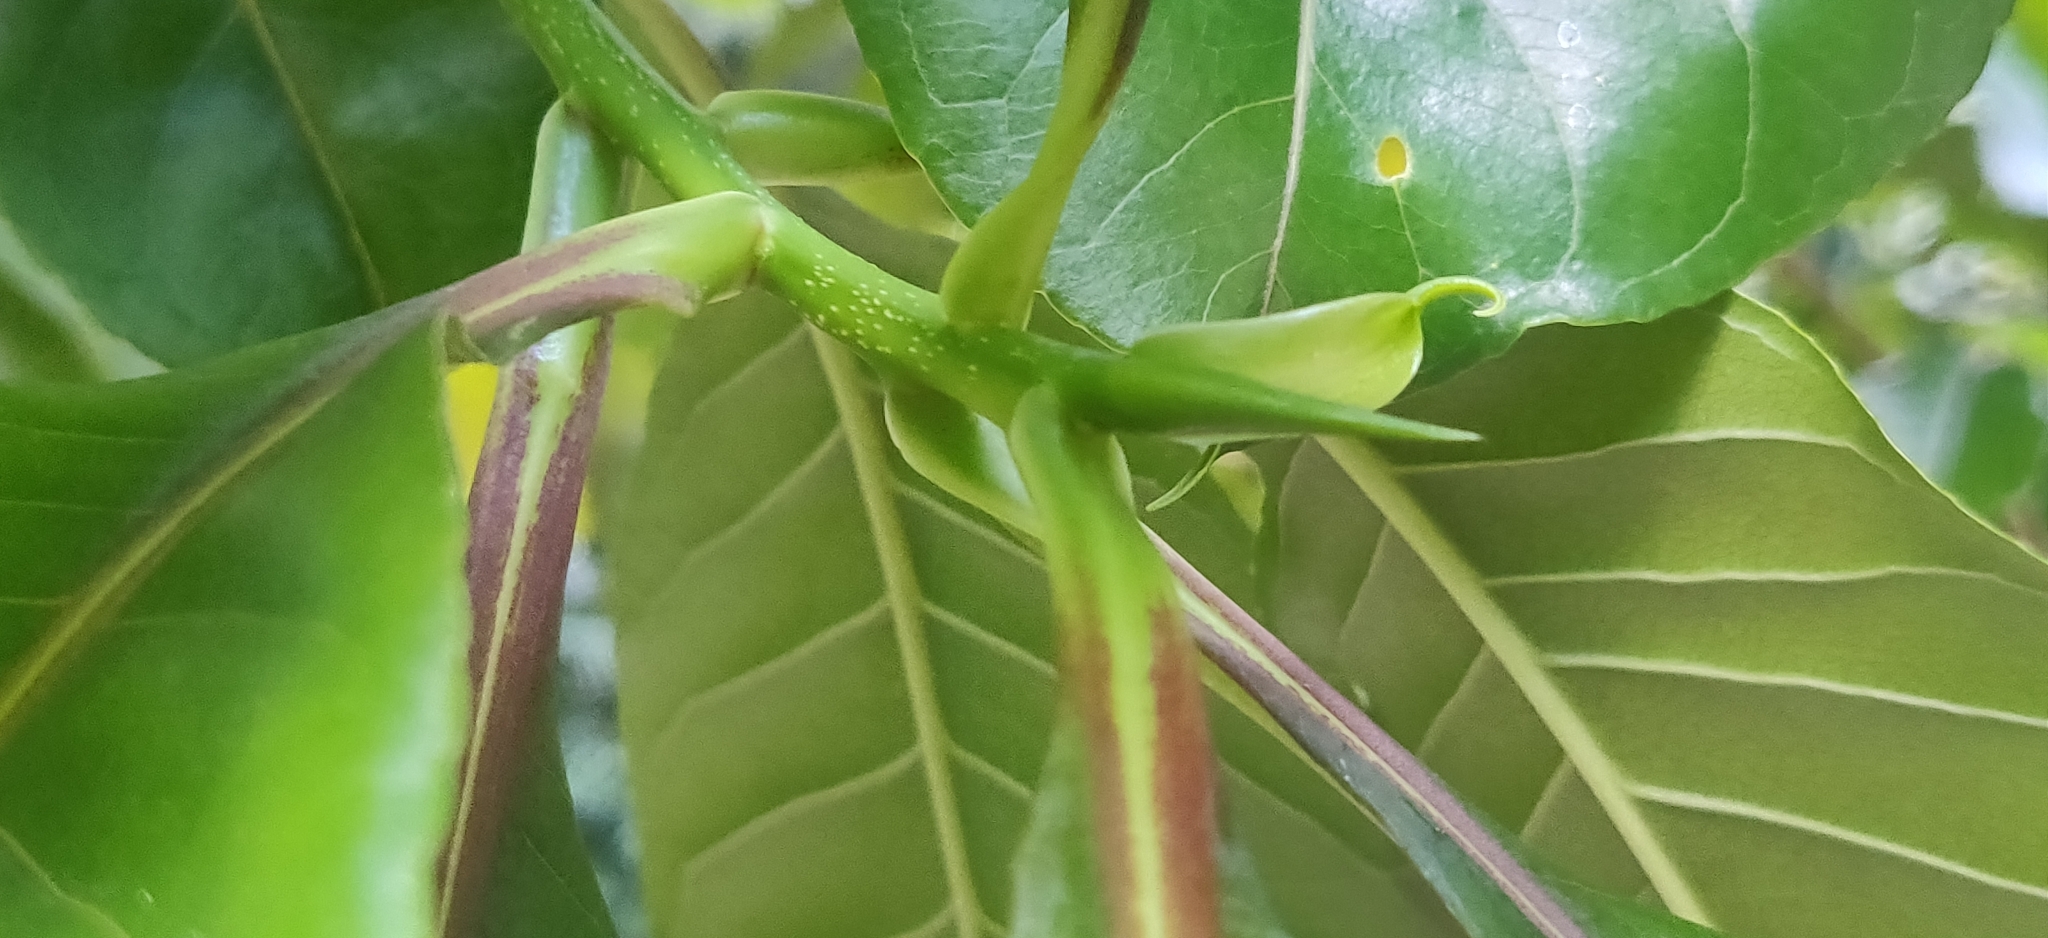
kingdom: Plantae
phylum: Tracheophyta
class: Magnoliopsida
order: Ericales
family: Lecythidaceae
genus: Planchonia
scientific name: Planchonia valida
